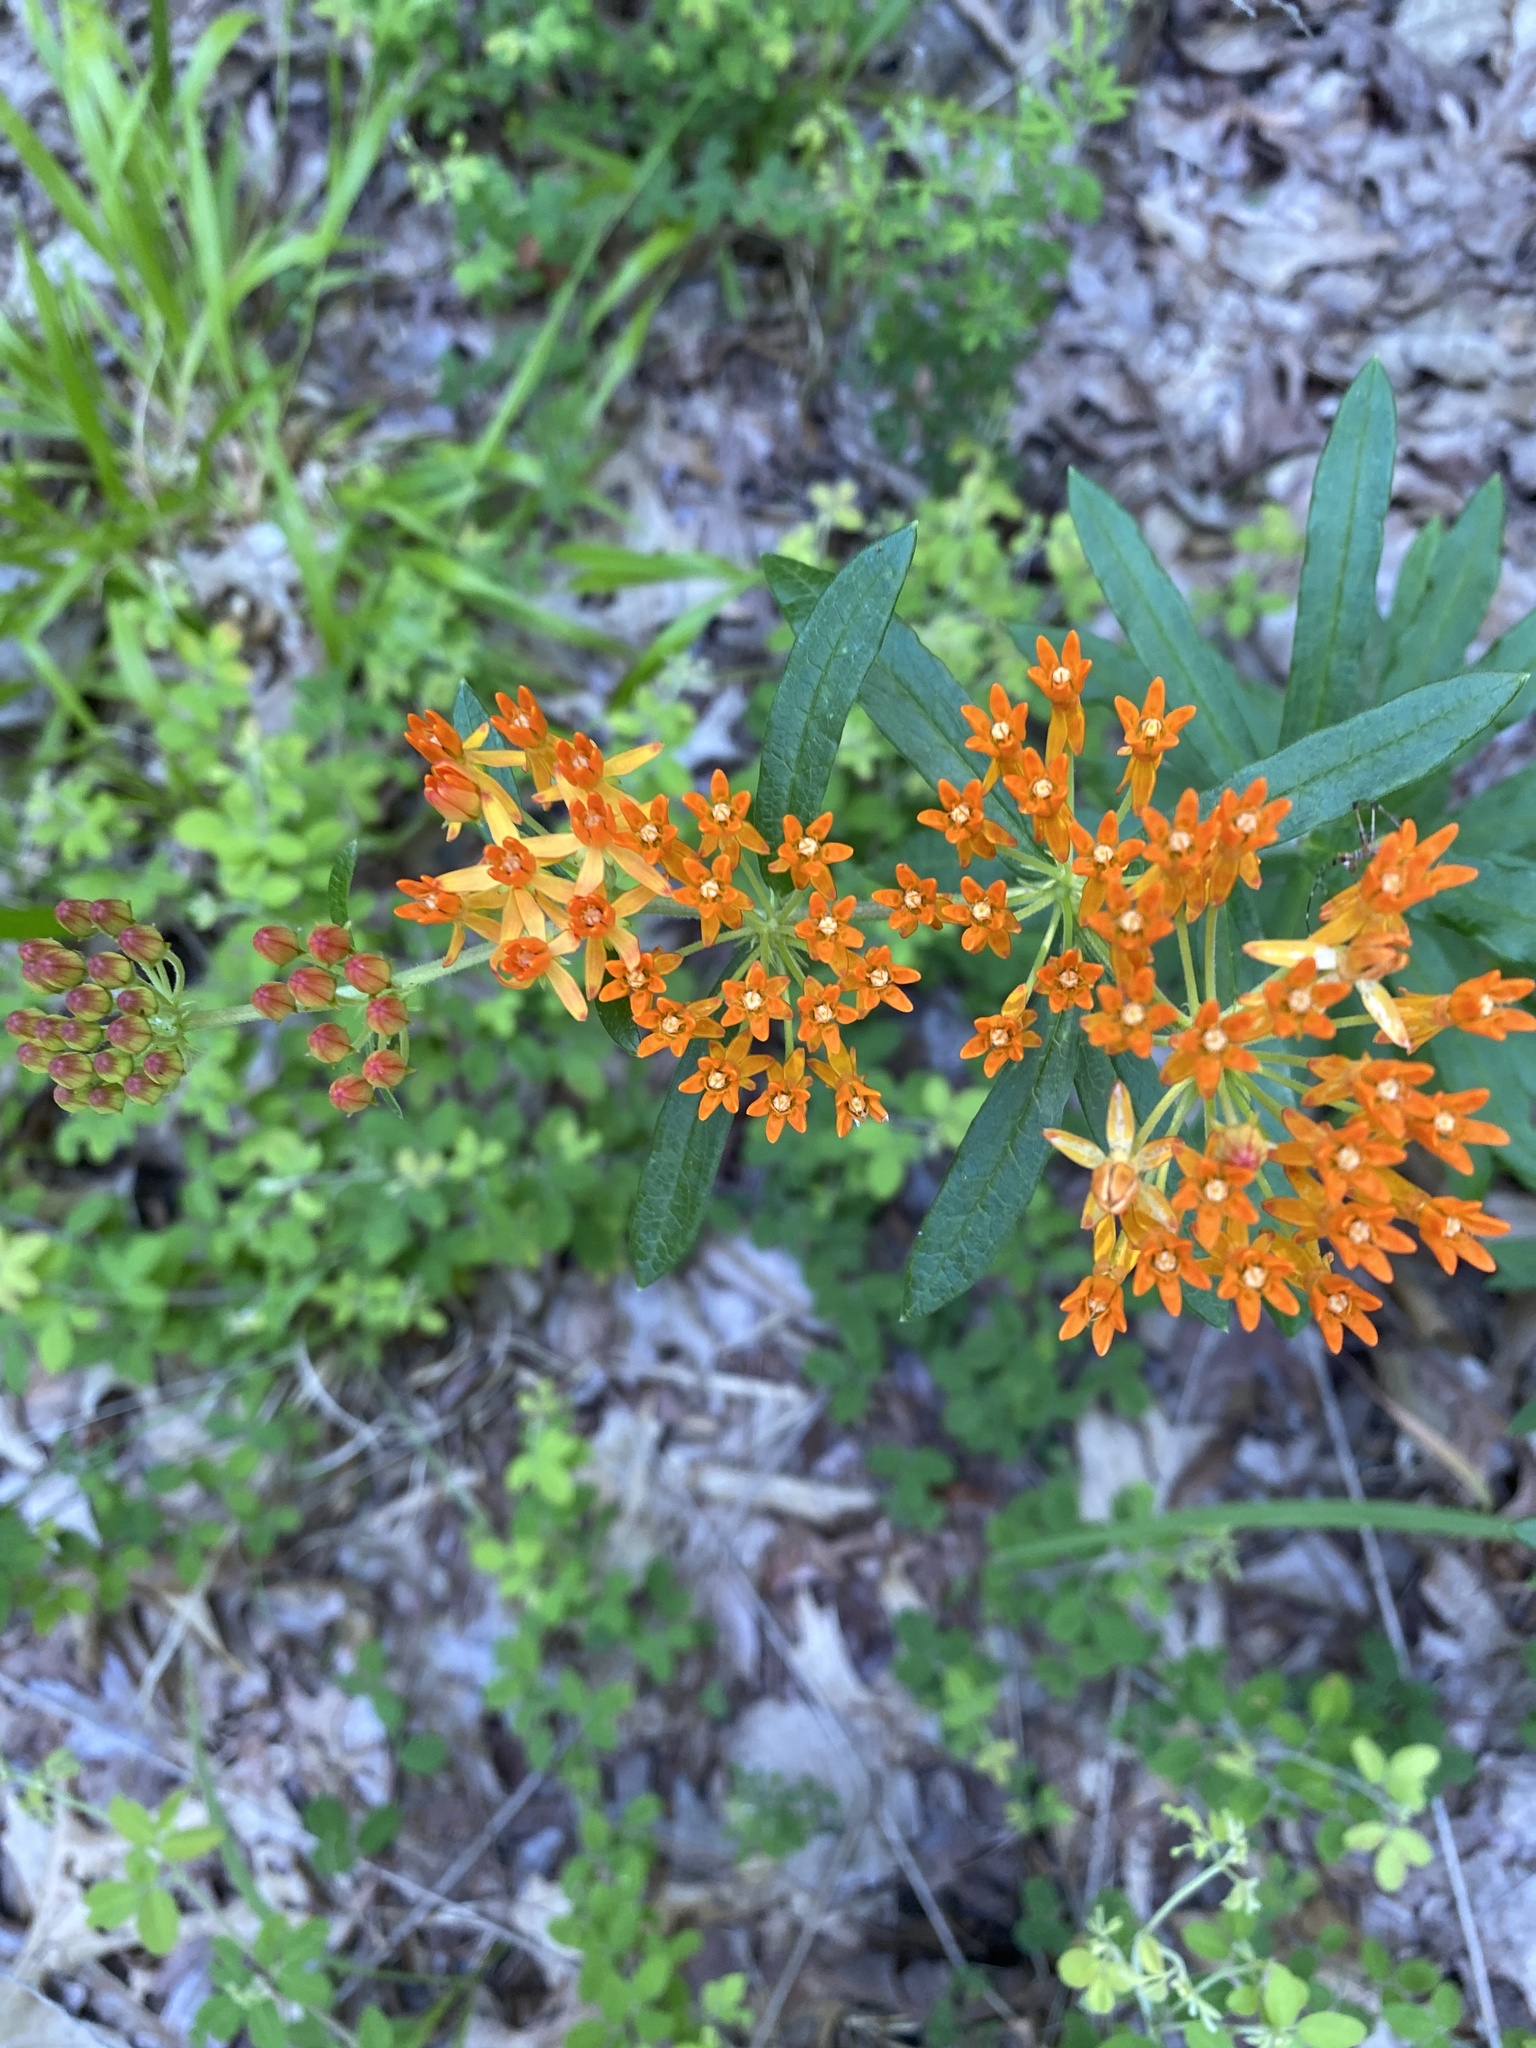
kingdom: Plantae
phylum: Tracheophyta
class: Magnoliopsida
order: Gentianales
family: Apocynaceae
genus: Asclepias
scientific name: Asclepias tuberosa
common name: Butterfly milkweed
